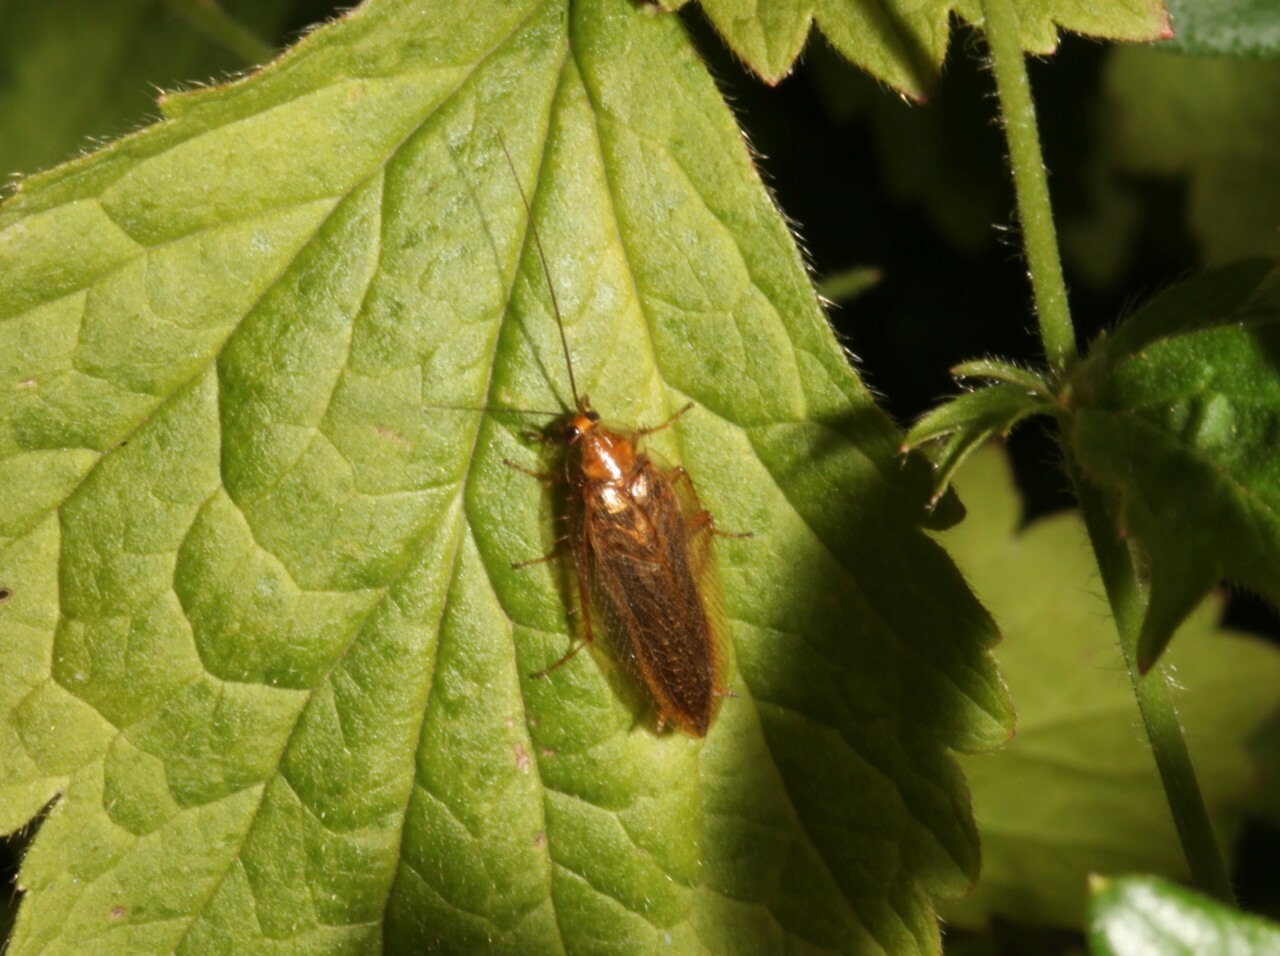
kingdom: Animalia
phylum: Arthropoda
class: Insecta
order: Blattodea
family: Ectobiidae
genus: Ectobius
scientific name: Ectobius vittiventris
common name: Garden cockroach
